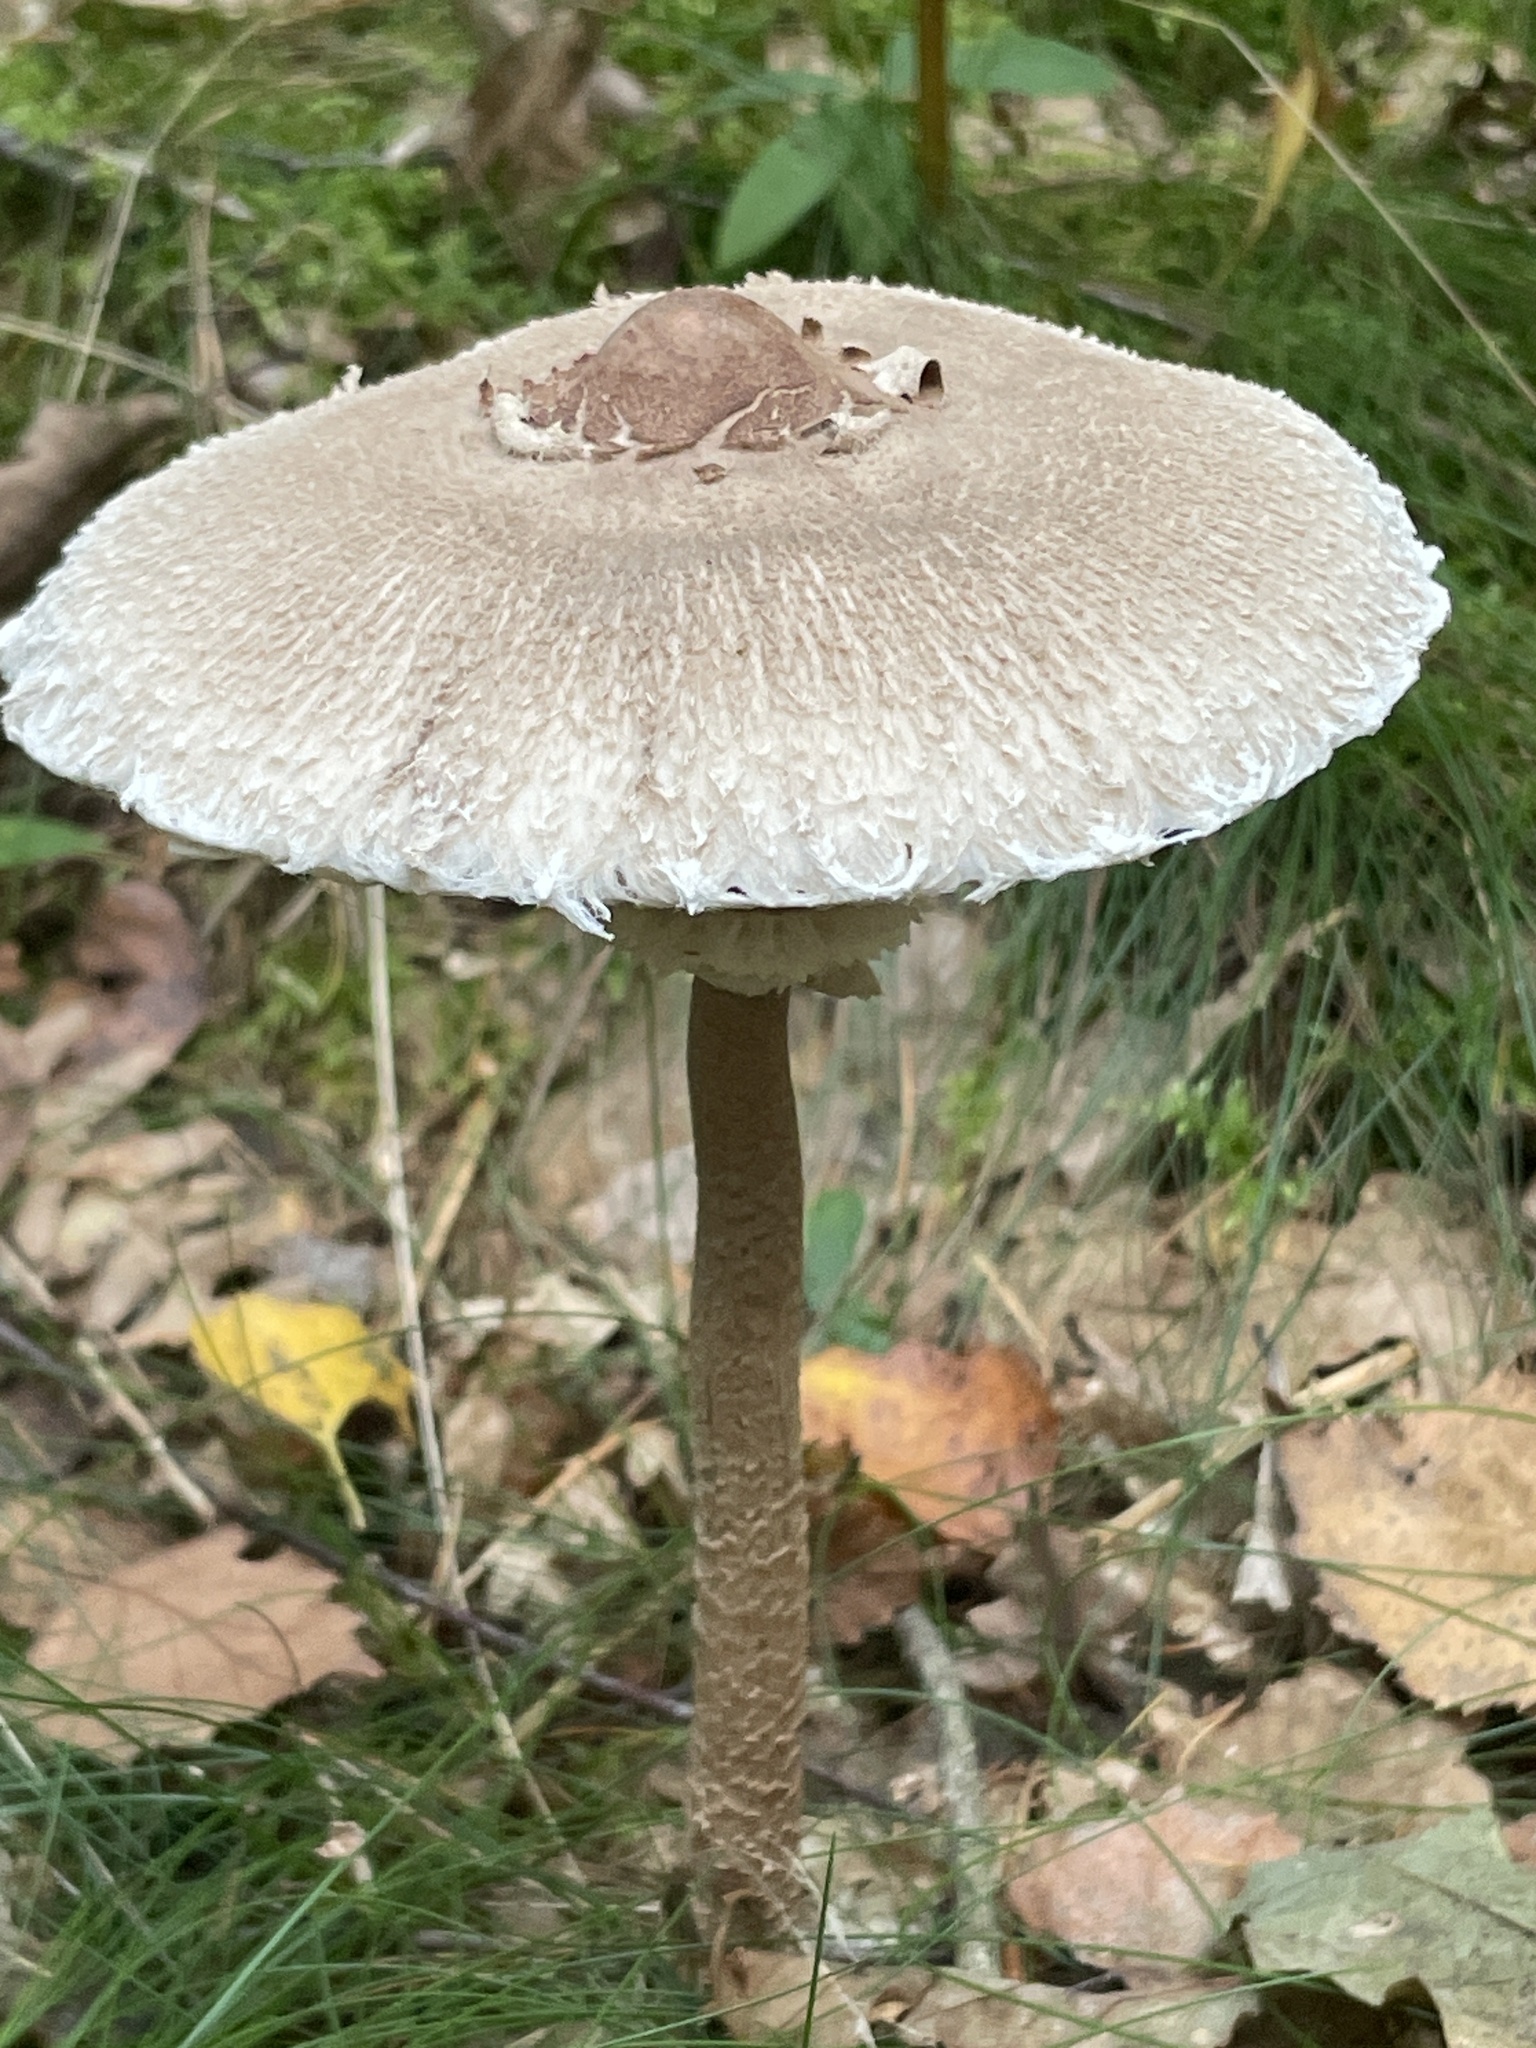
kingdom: Fungi
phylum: Basidiomycota
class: Agaricomycetes
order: Agaricales
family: Agaricaceae
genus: Macrolepiota
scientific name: Macrolepiota procera
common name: Parasol
